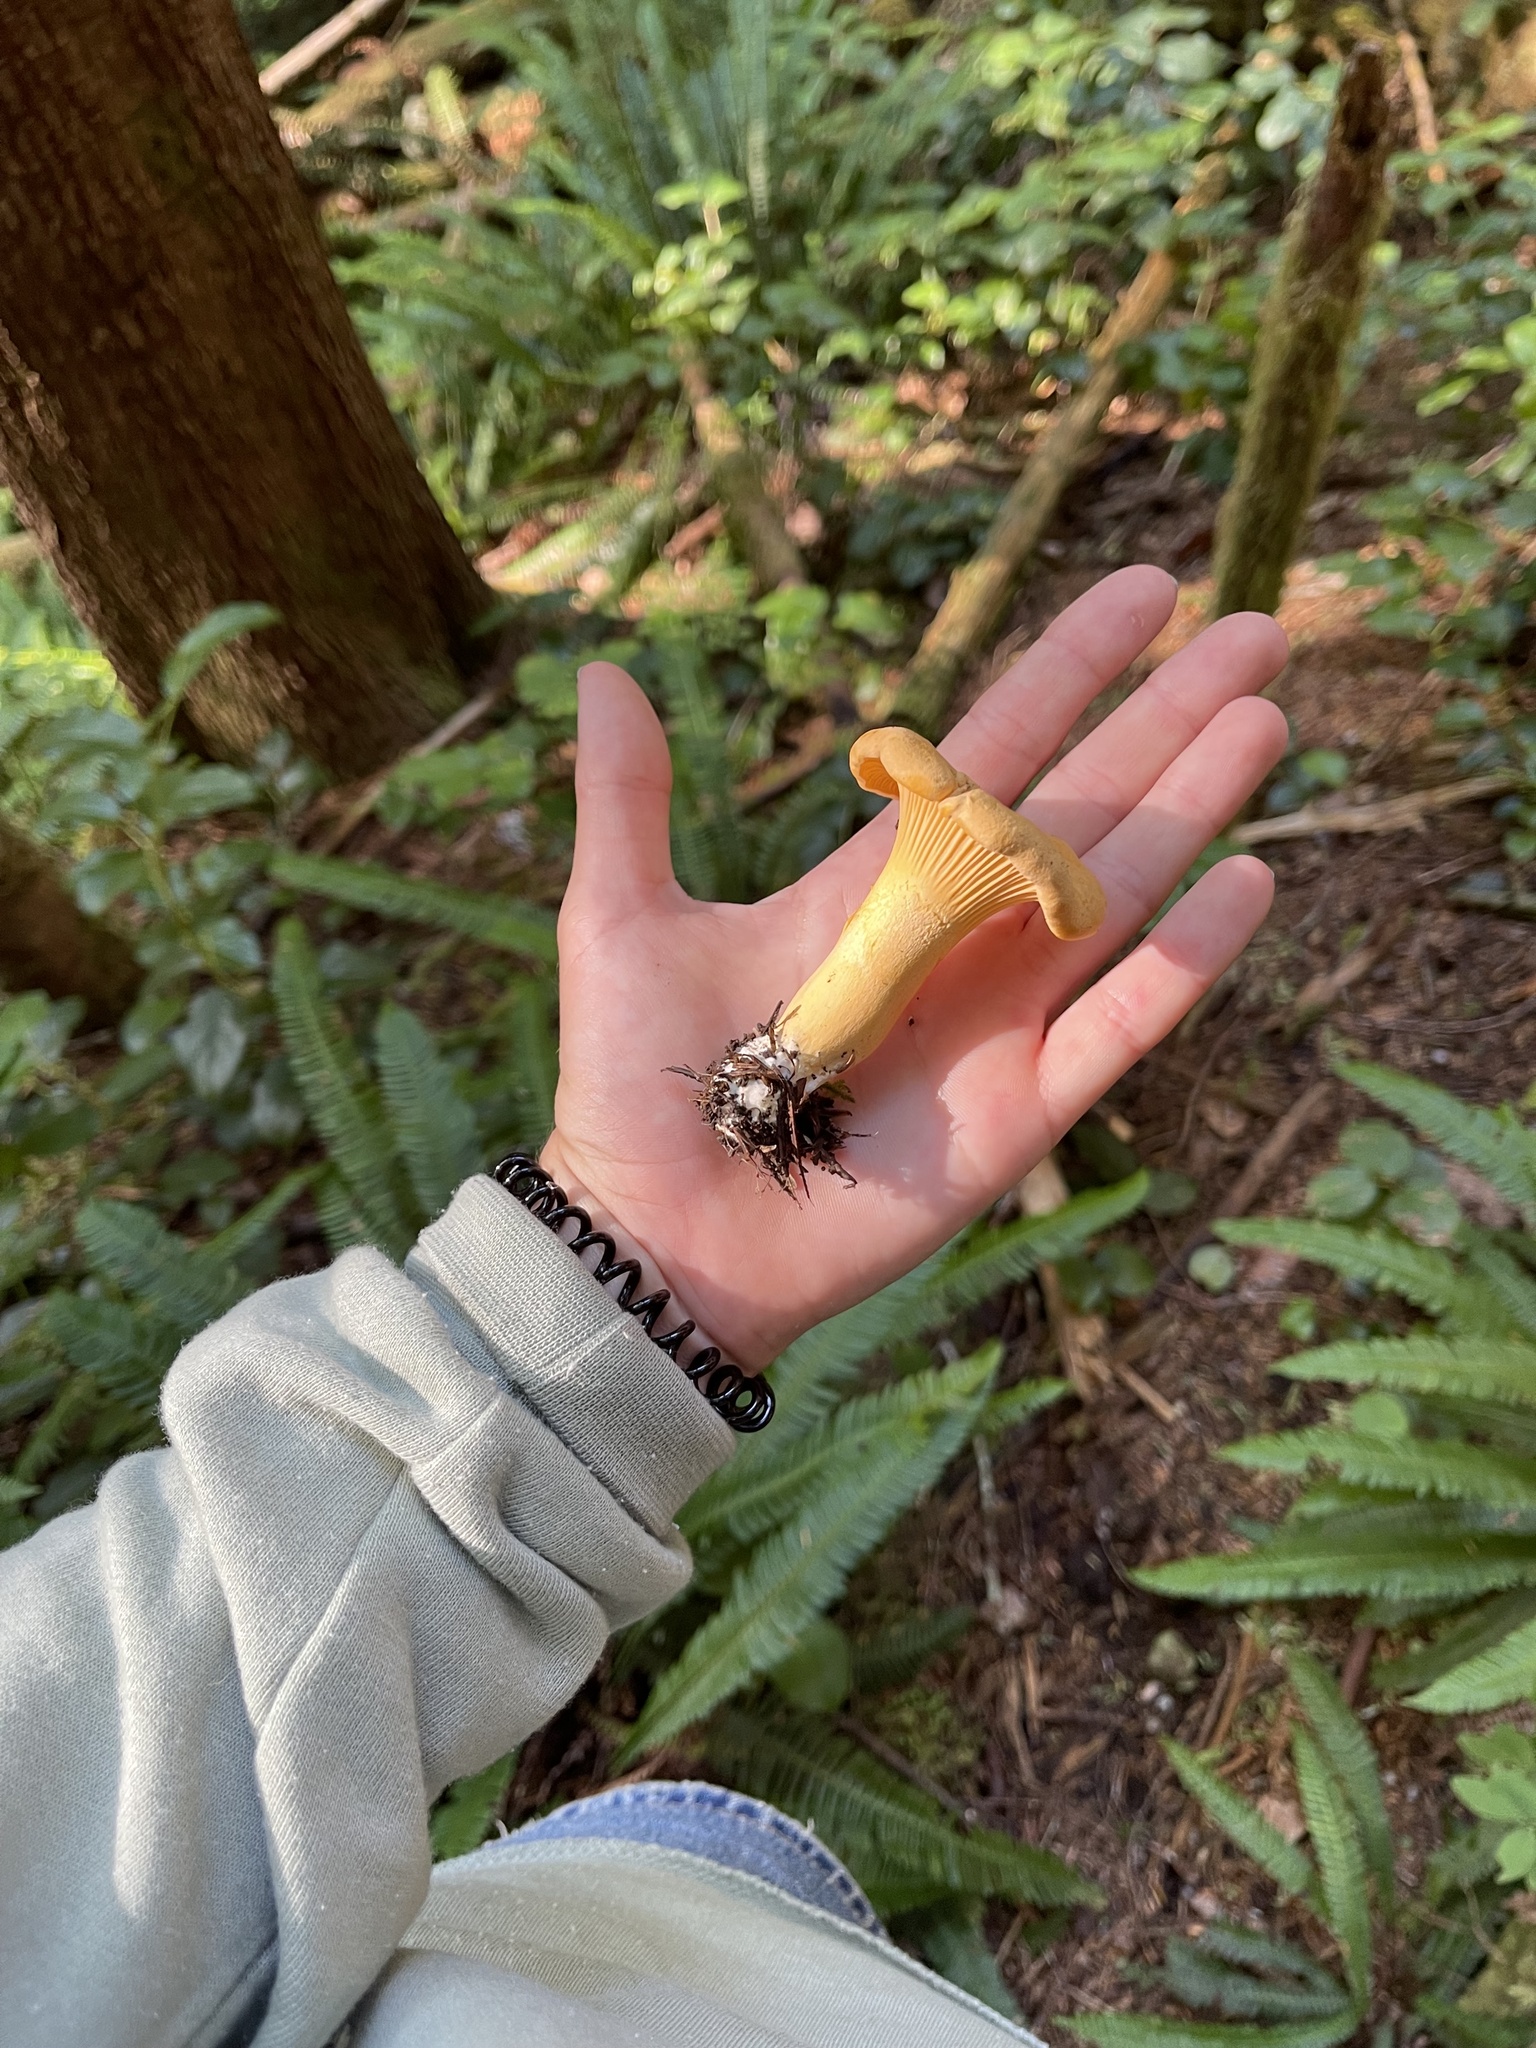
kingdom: Fungi
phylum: Basidiomycota
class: Agaricomycetes
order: Cantharellales
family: Hydnaceae
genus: Cantharellus
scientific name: Cantharellus formosus
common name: Pacific golden chanterelle
